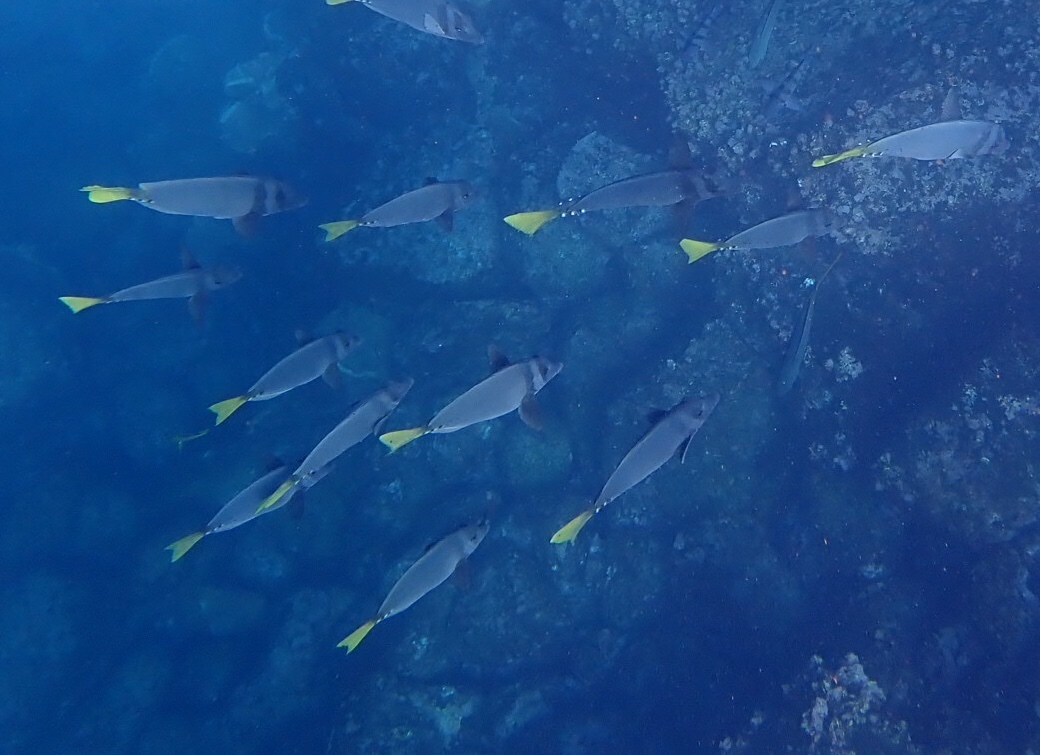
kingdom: Animalia
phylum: Chordata
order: Perciformes
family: Acanthuridae
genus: Prionurus
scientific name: Prionurus laticlavius
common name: Razor surgeonfish
